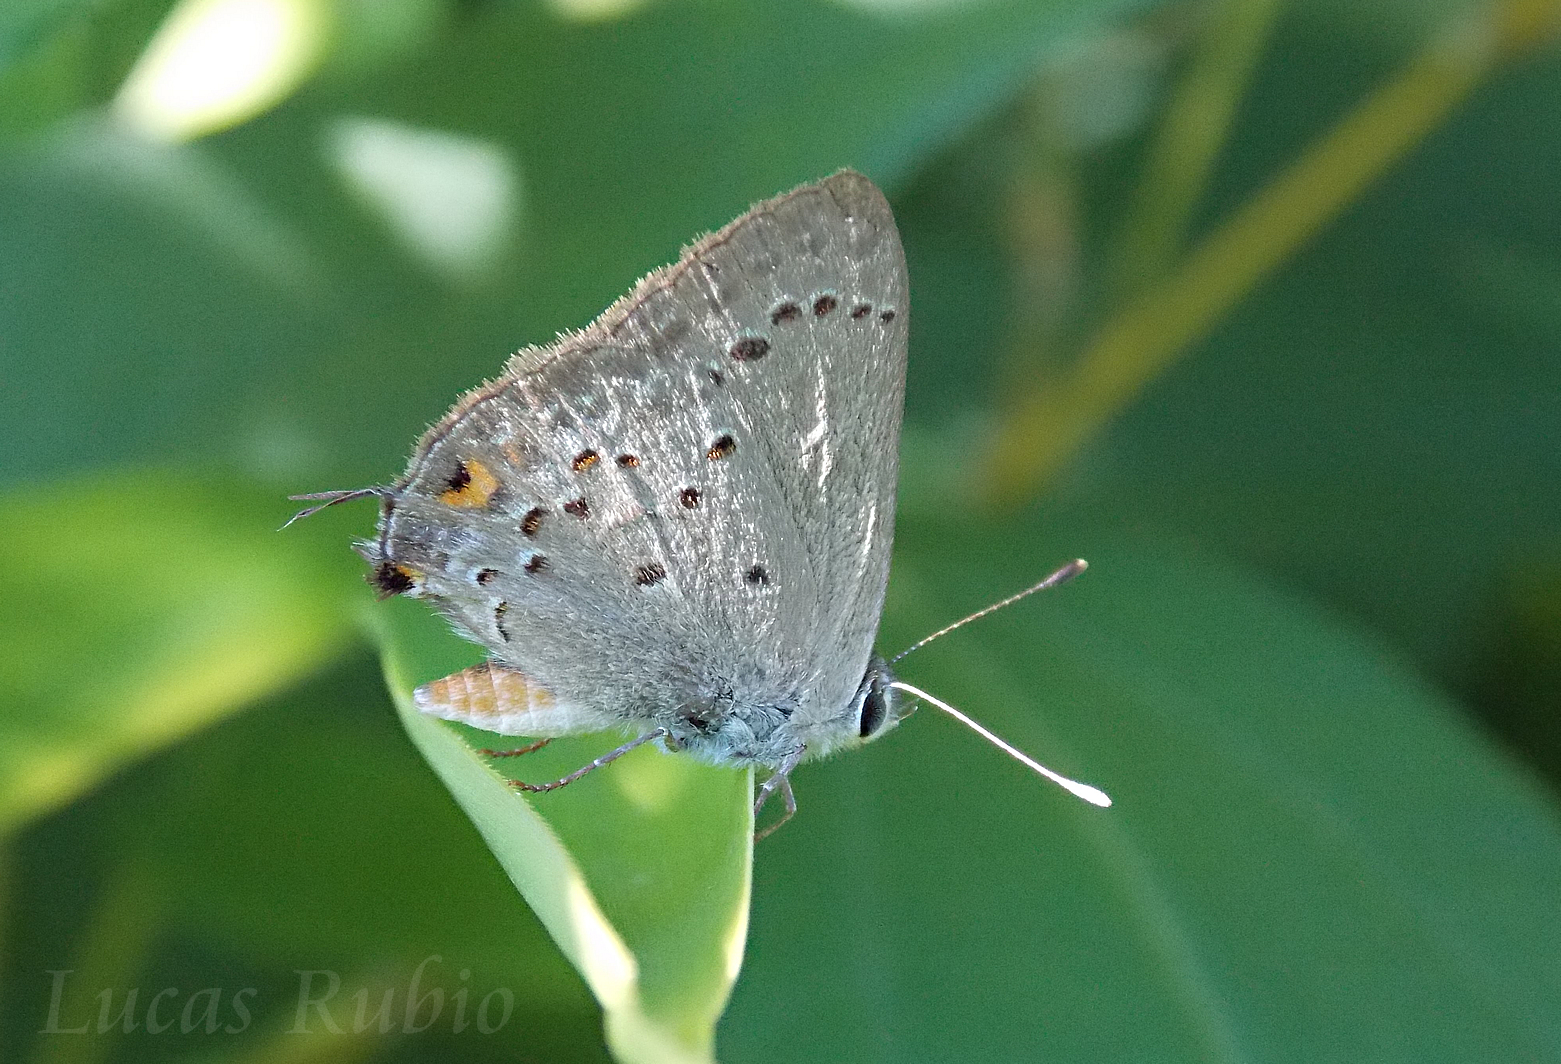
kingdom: Animalia
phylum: Arthropoda
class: Insecta
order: Lepidoptera
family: Lycaenidae
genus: Strymon
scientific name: Strymon eurytulus
